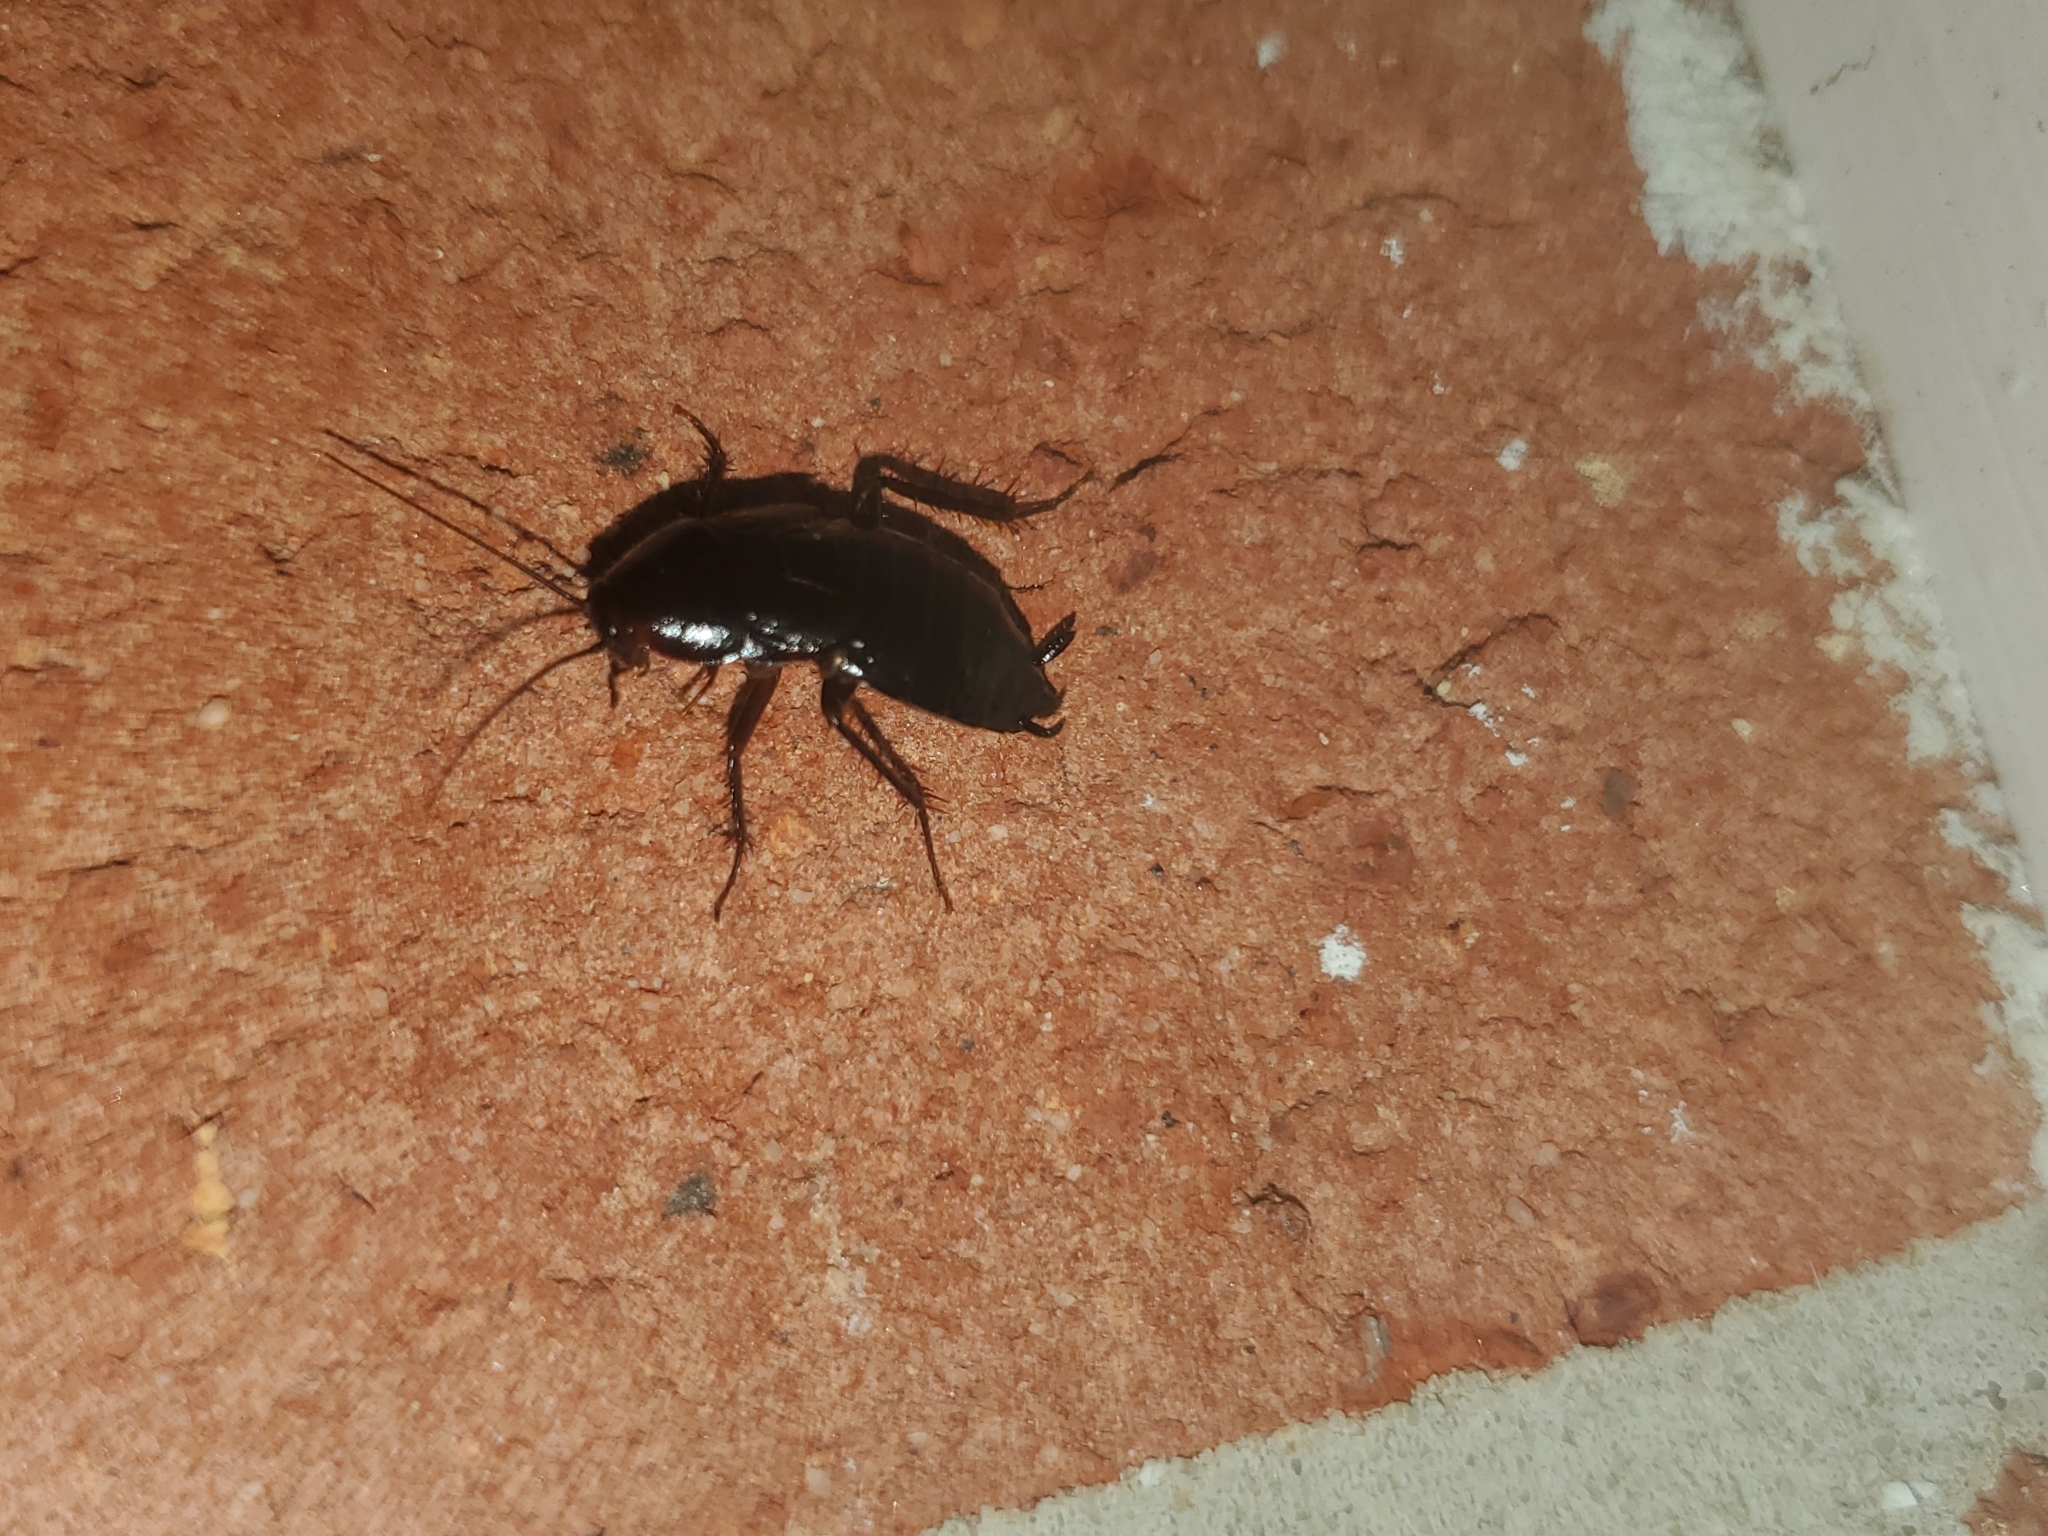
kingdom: Animalia
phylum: Arthropoda
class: Insecta
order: Blattodea
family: Blattidae
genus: Blatta
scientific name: Blatta orientalis
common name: Oriental cockroach
